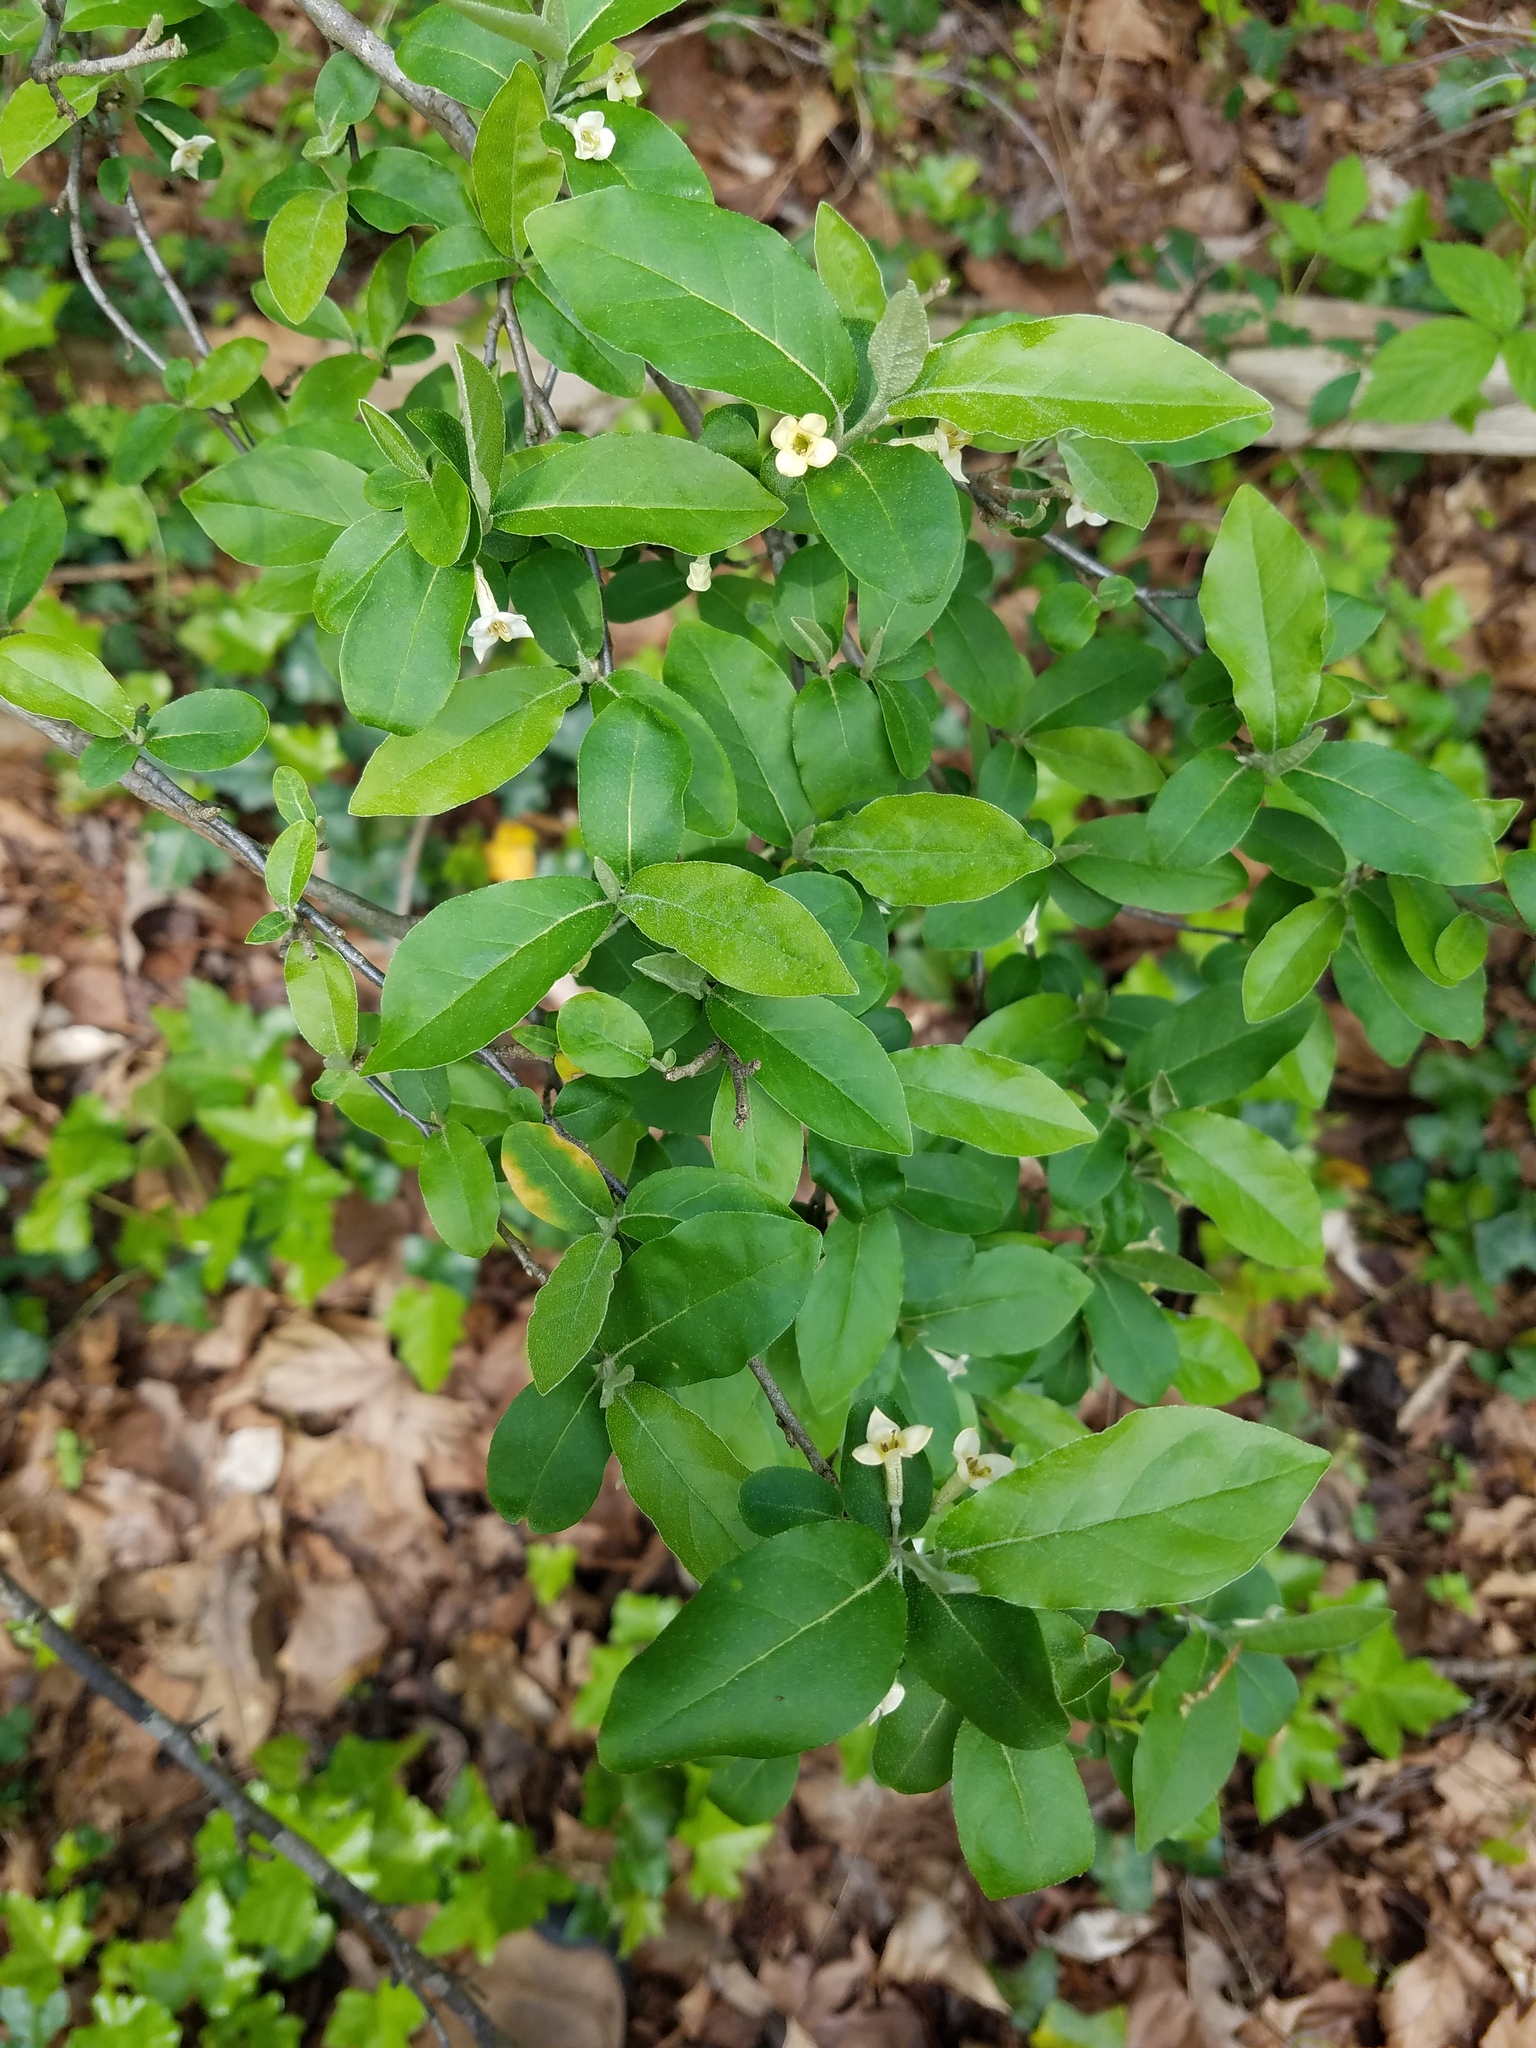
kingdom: Plantae
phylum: Tracheophyta
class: Magnoliopsida
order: Rosales
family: Elaeagnaceae
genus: Elaeagnus
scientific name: Elaeagnus umbellata
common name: Autumn olive
